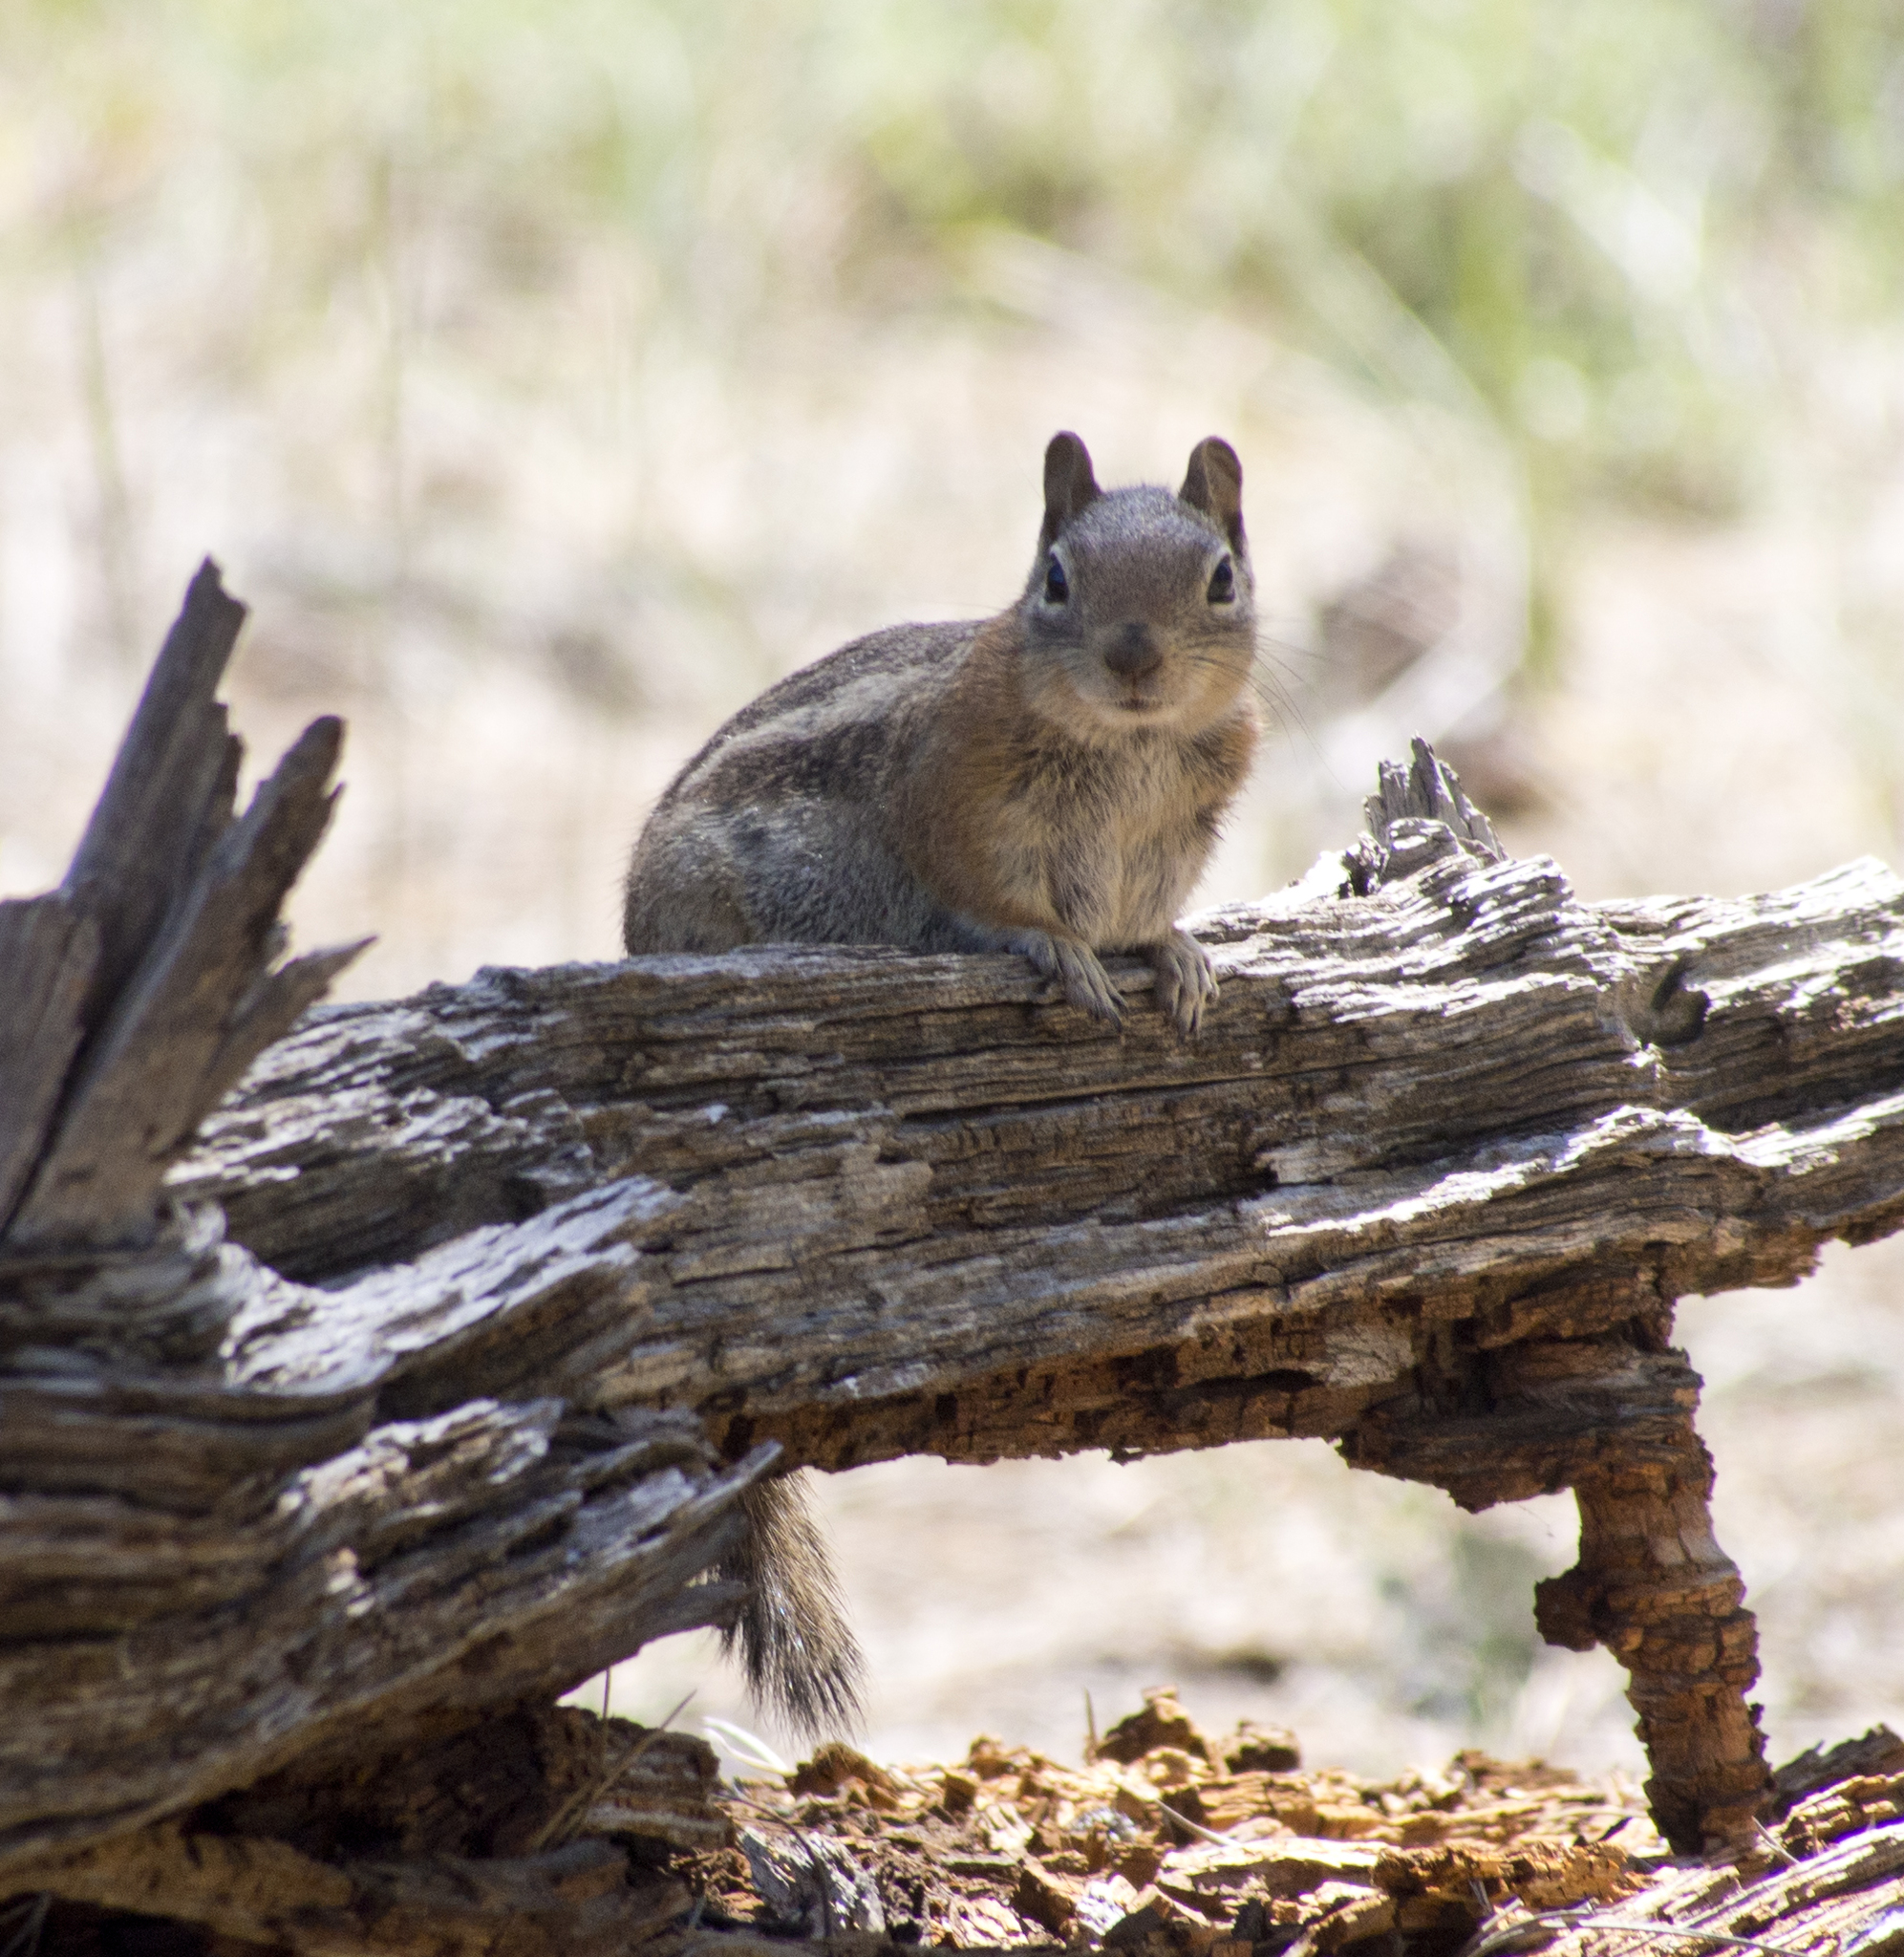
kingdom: Animalia
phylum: Chordata
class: Mammalia
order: Rodentia
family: Sciuridae
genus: Callospermophilus
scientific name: Callospermophilus lateralis
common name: Golden-mantled ground squirrel
